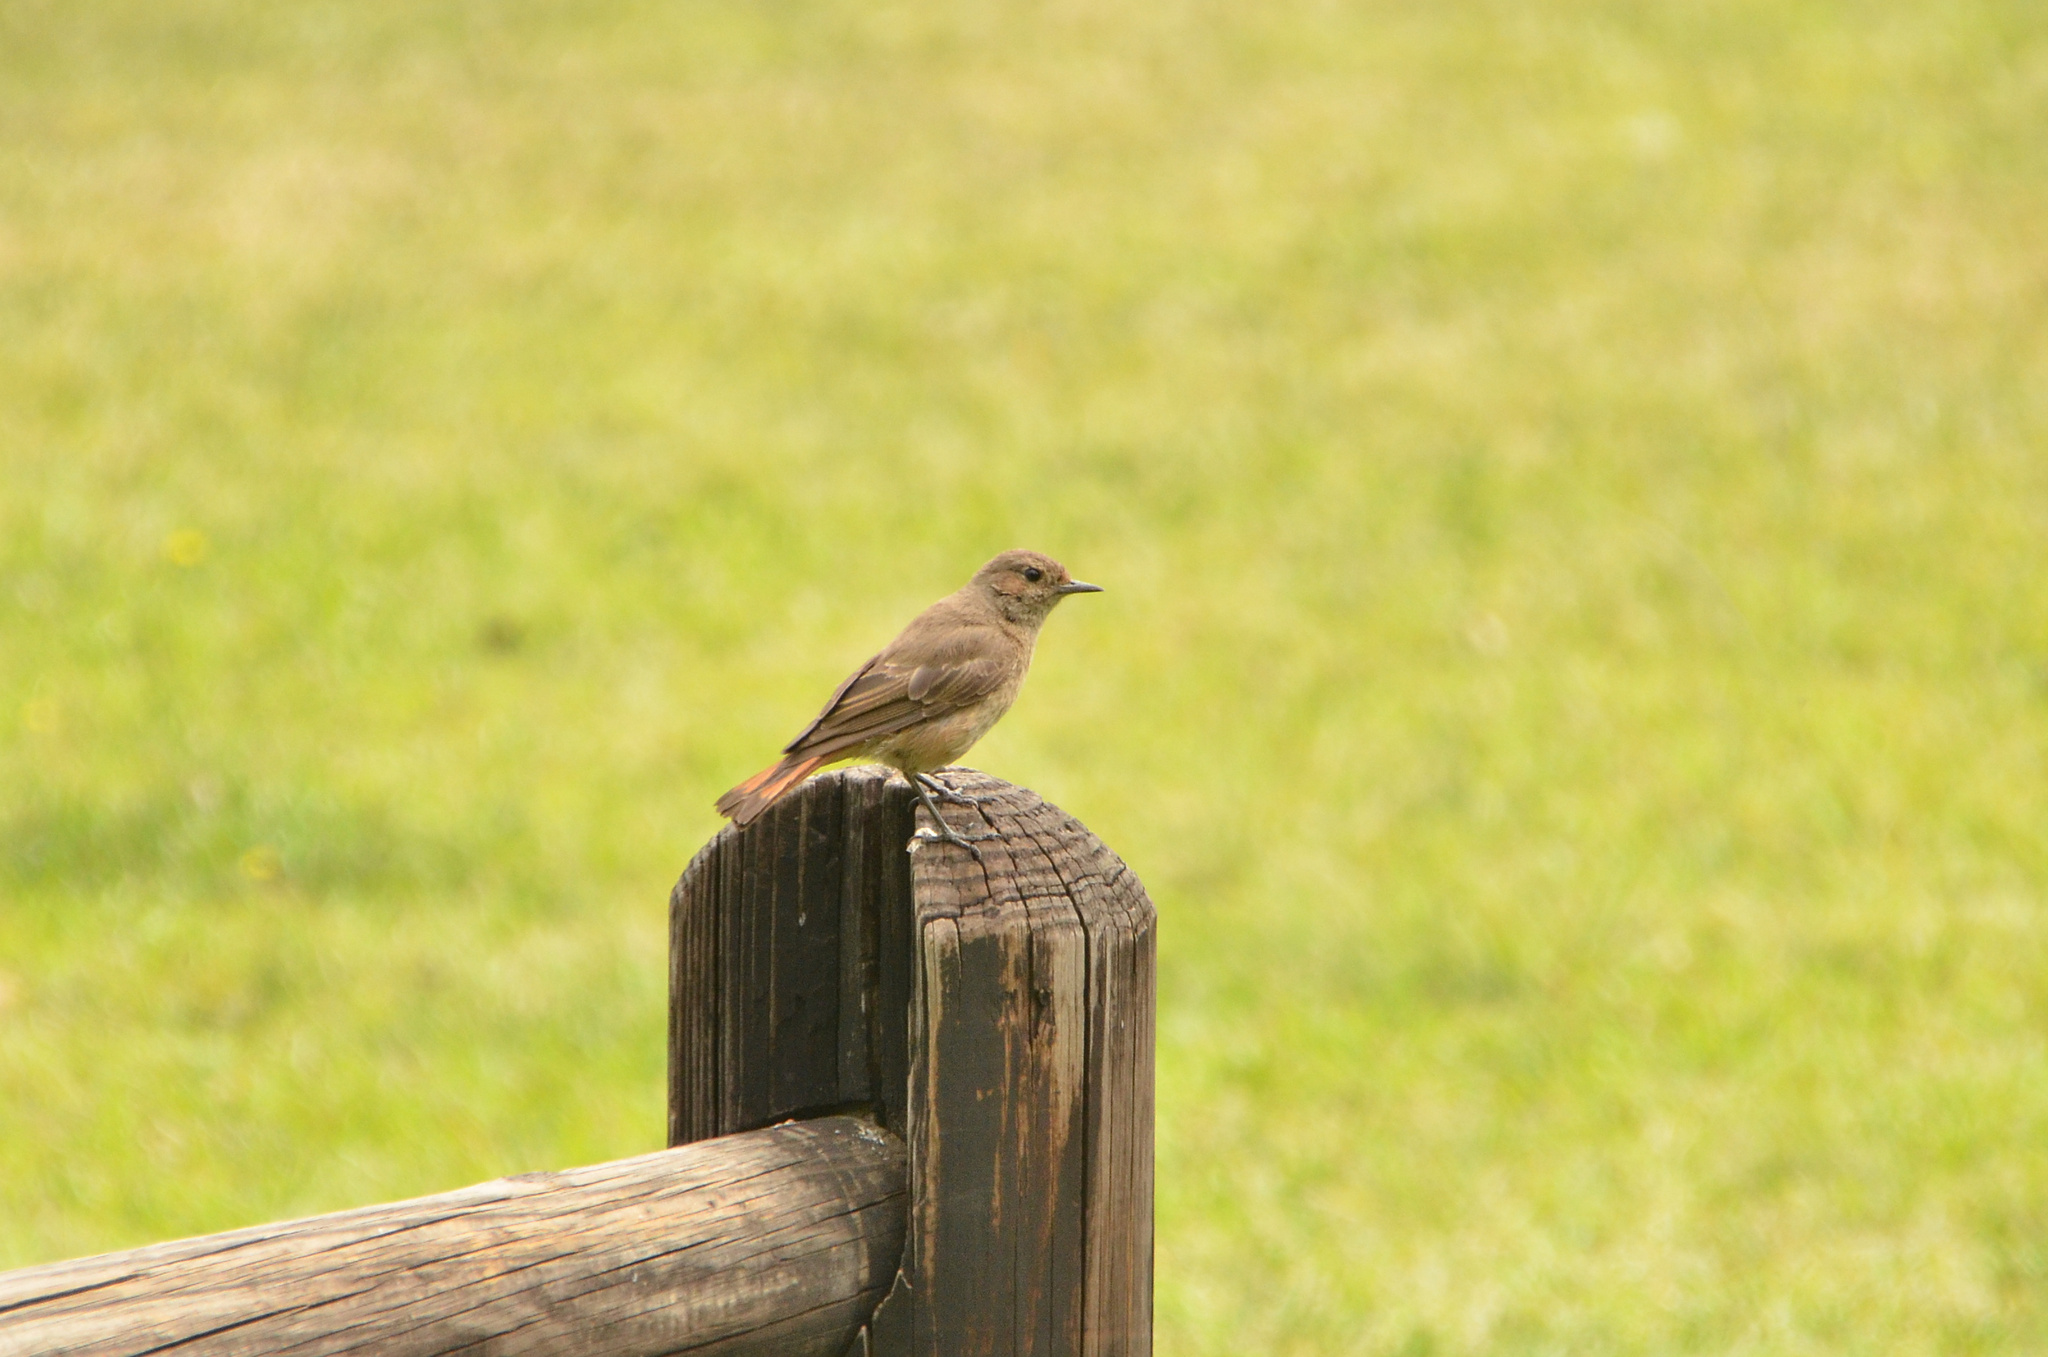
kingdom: Animalia
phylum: Chordata
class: Aves
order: Passeriformes
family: Muscicapidae
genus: Oenanthe
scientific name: Oenanthe familiaris
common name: Familiar chat
